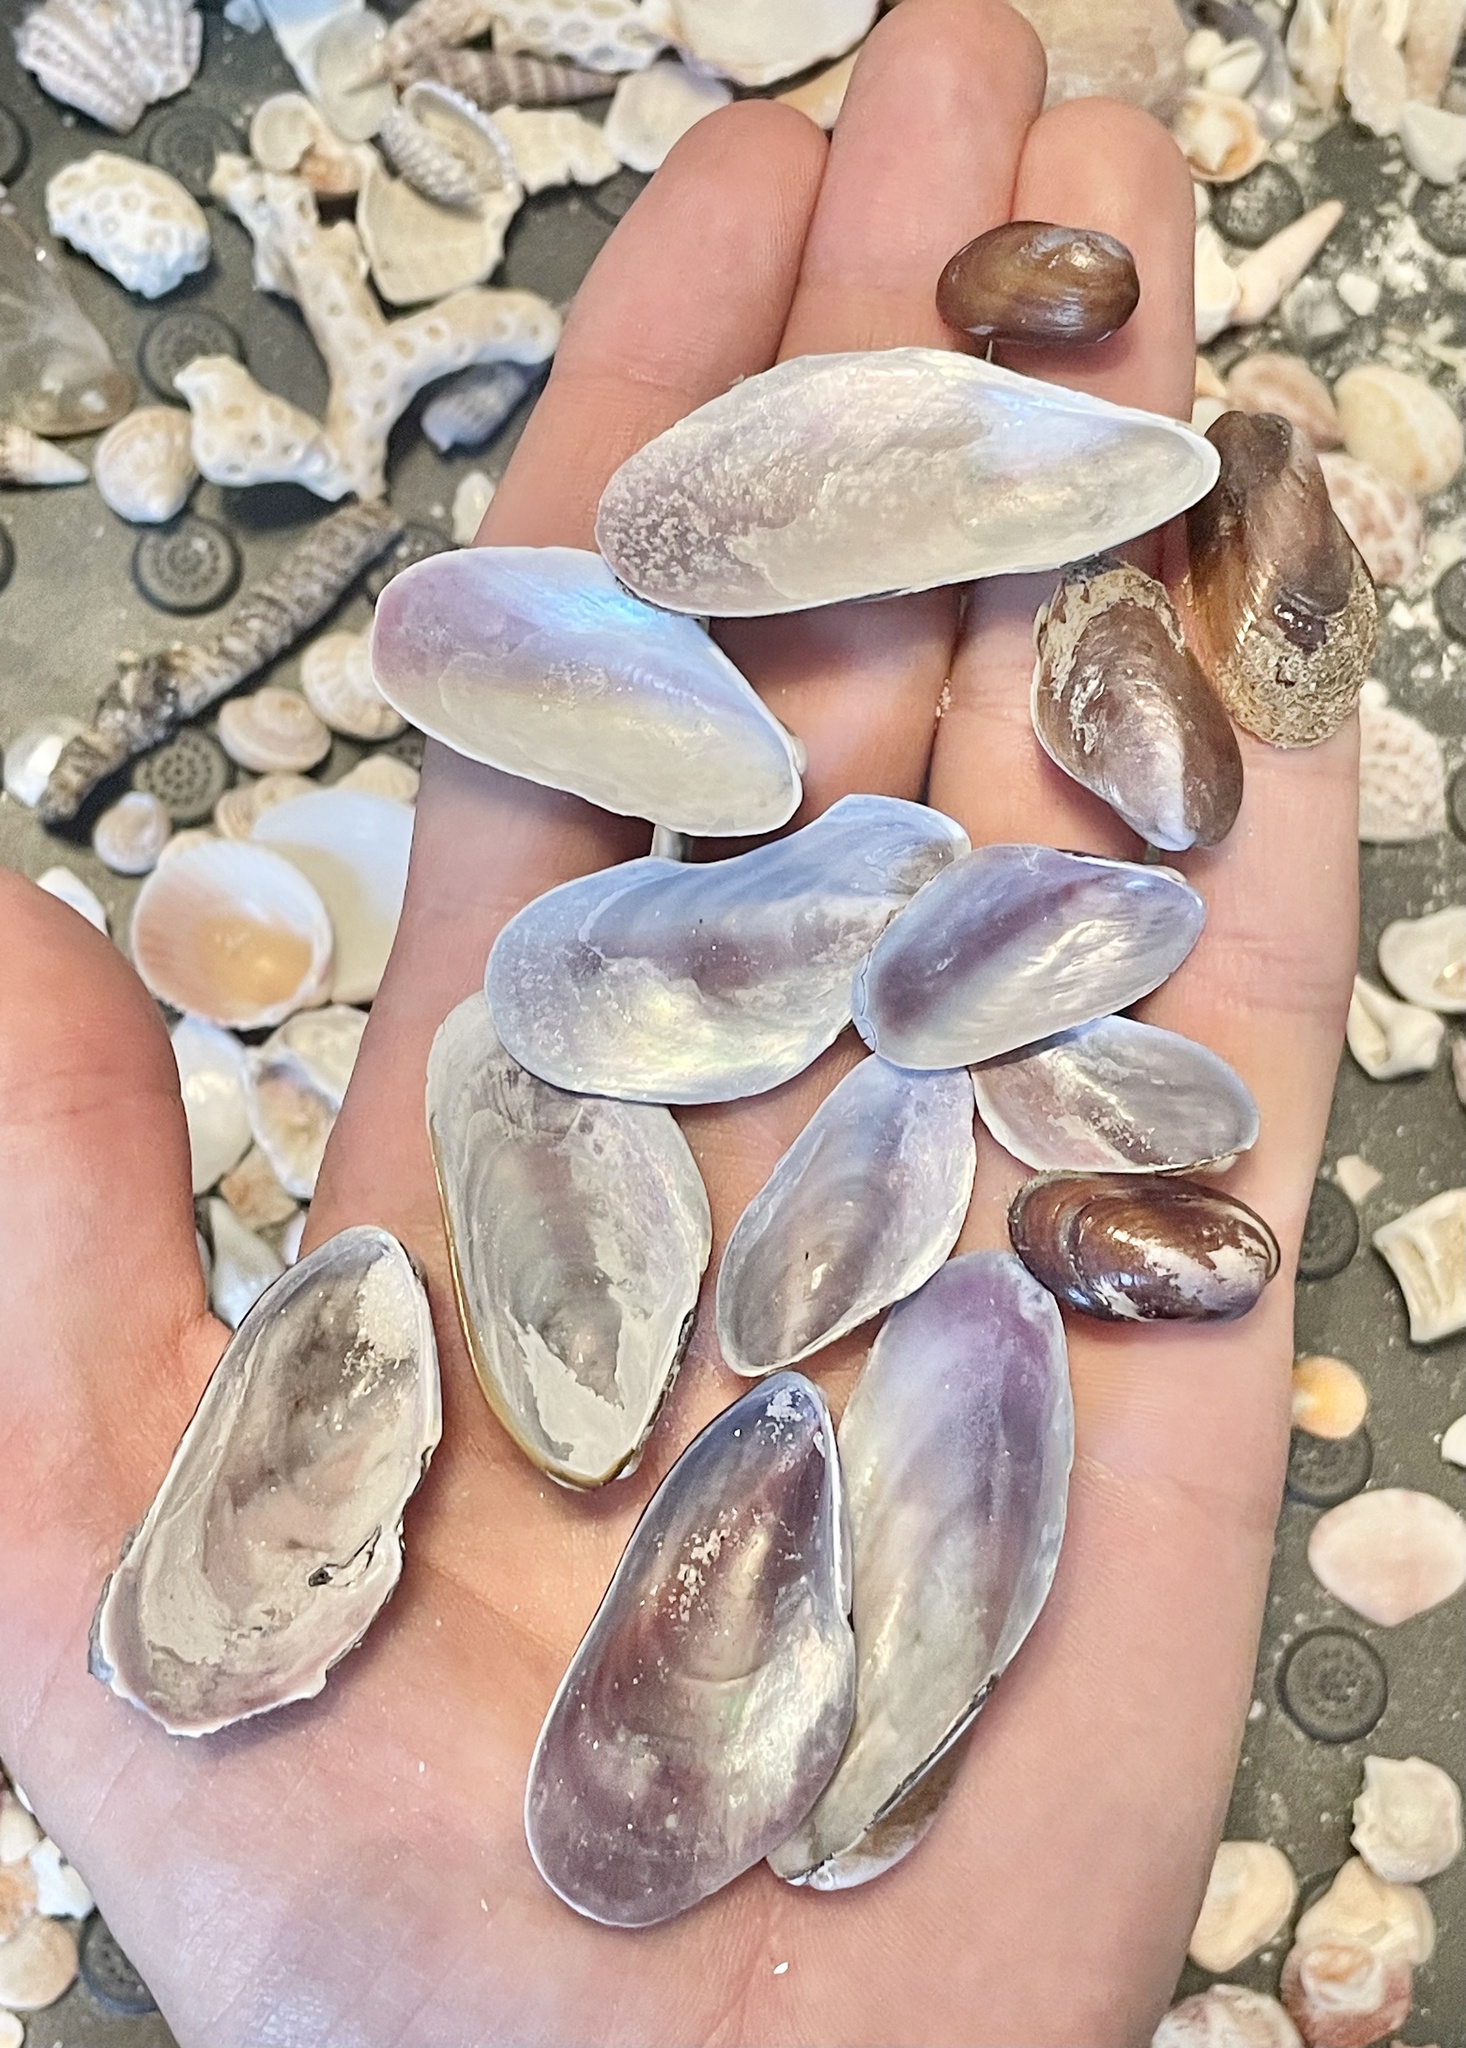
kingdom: Animalia
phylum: Mollusca
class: Bivalvia
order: Mytilida
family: Mytilidae
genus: Modiolus
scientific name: Modiolus squamosus
